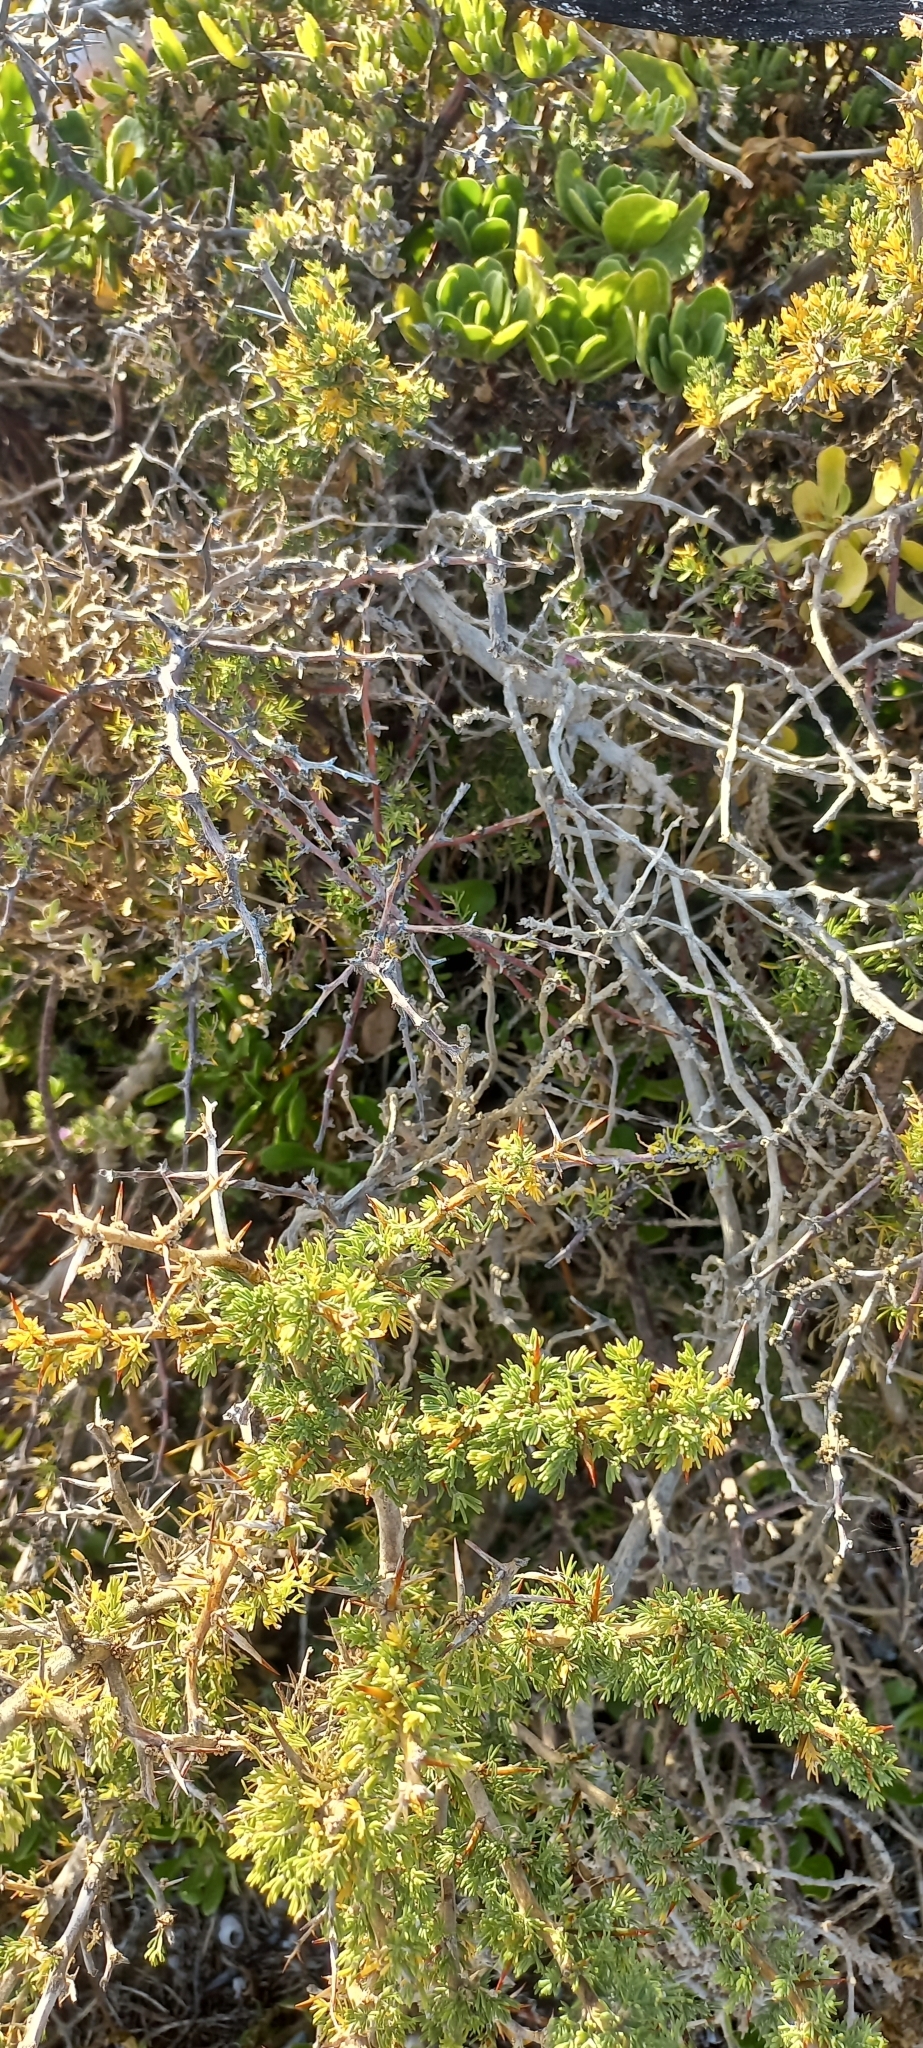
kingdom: Plantae
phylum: Tracheophyta
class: Liliopsida
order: Asparagales
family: Asparagaceae
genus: Asparagus
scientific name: Asparagus capensis
